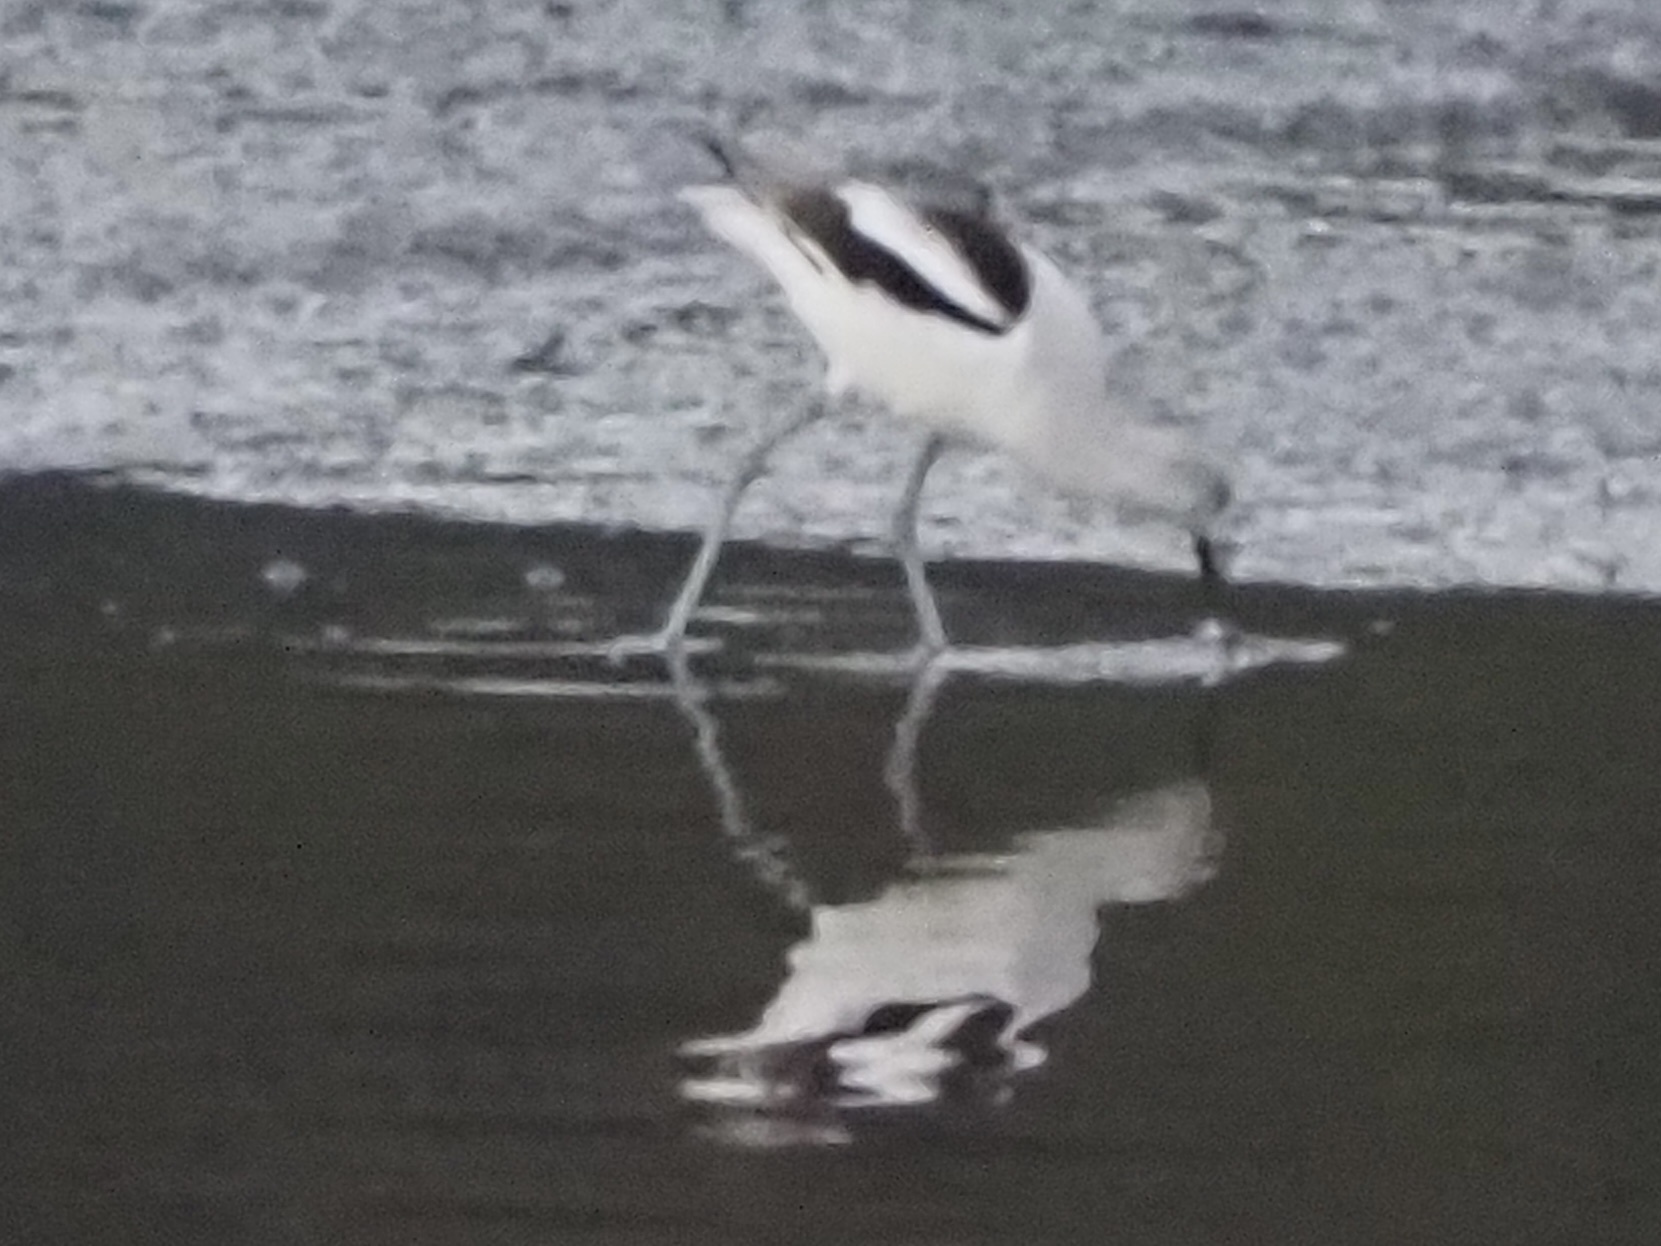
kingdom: Animalia
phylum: Chordata
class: Aves
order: Charadriiformes
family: Recurvirostridae
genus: Recurvirostra
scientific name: Recurvirostra americana
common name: American avocet
